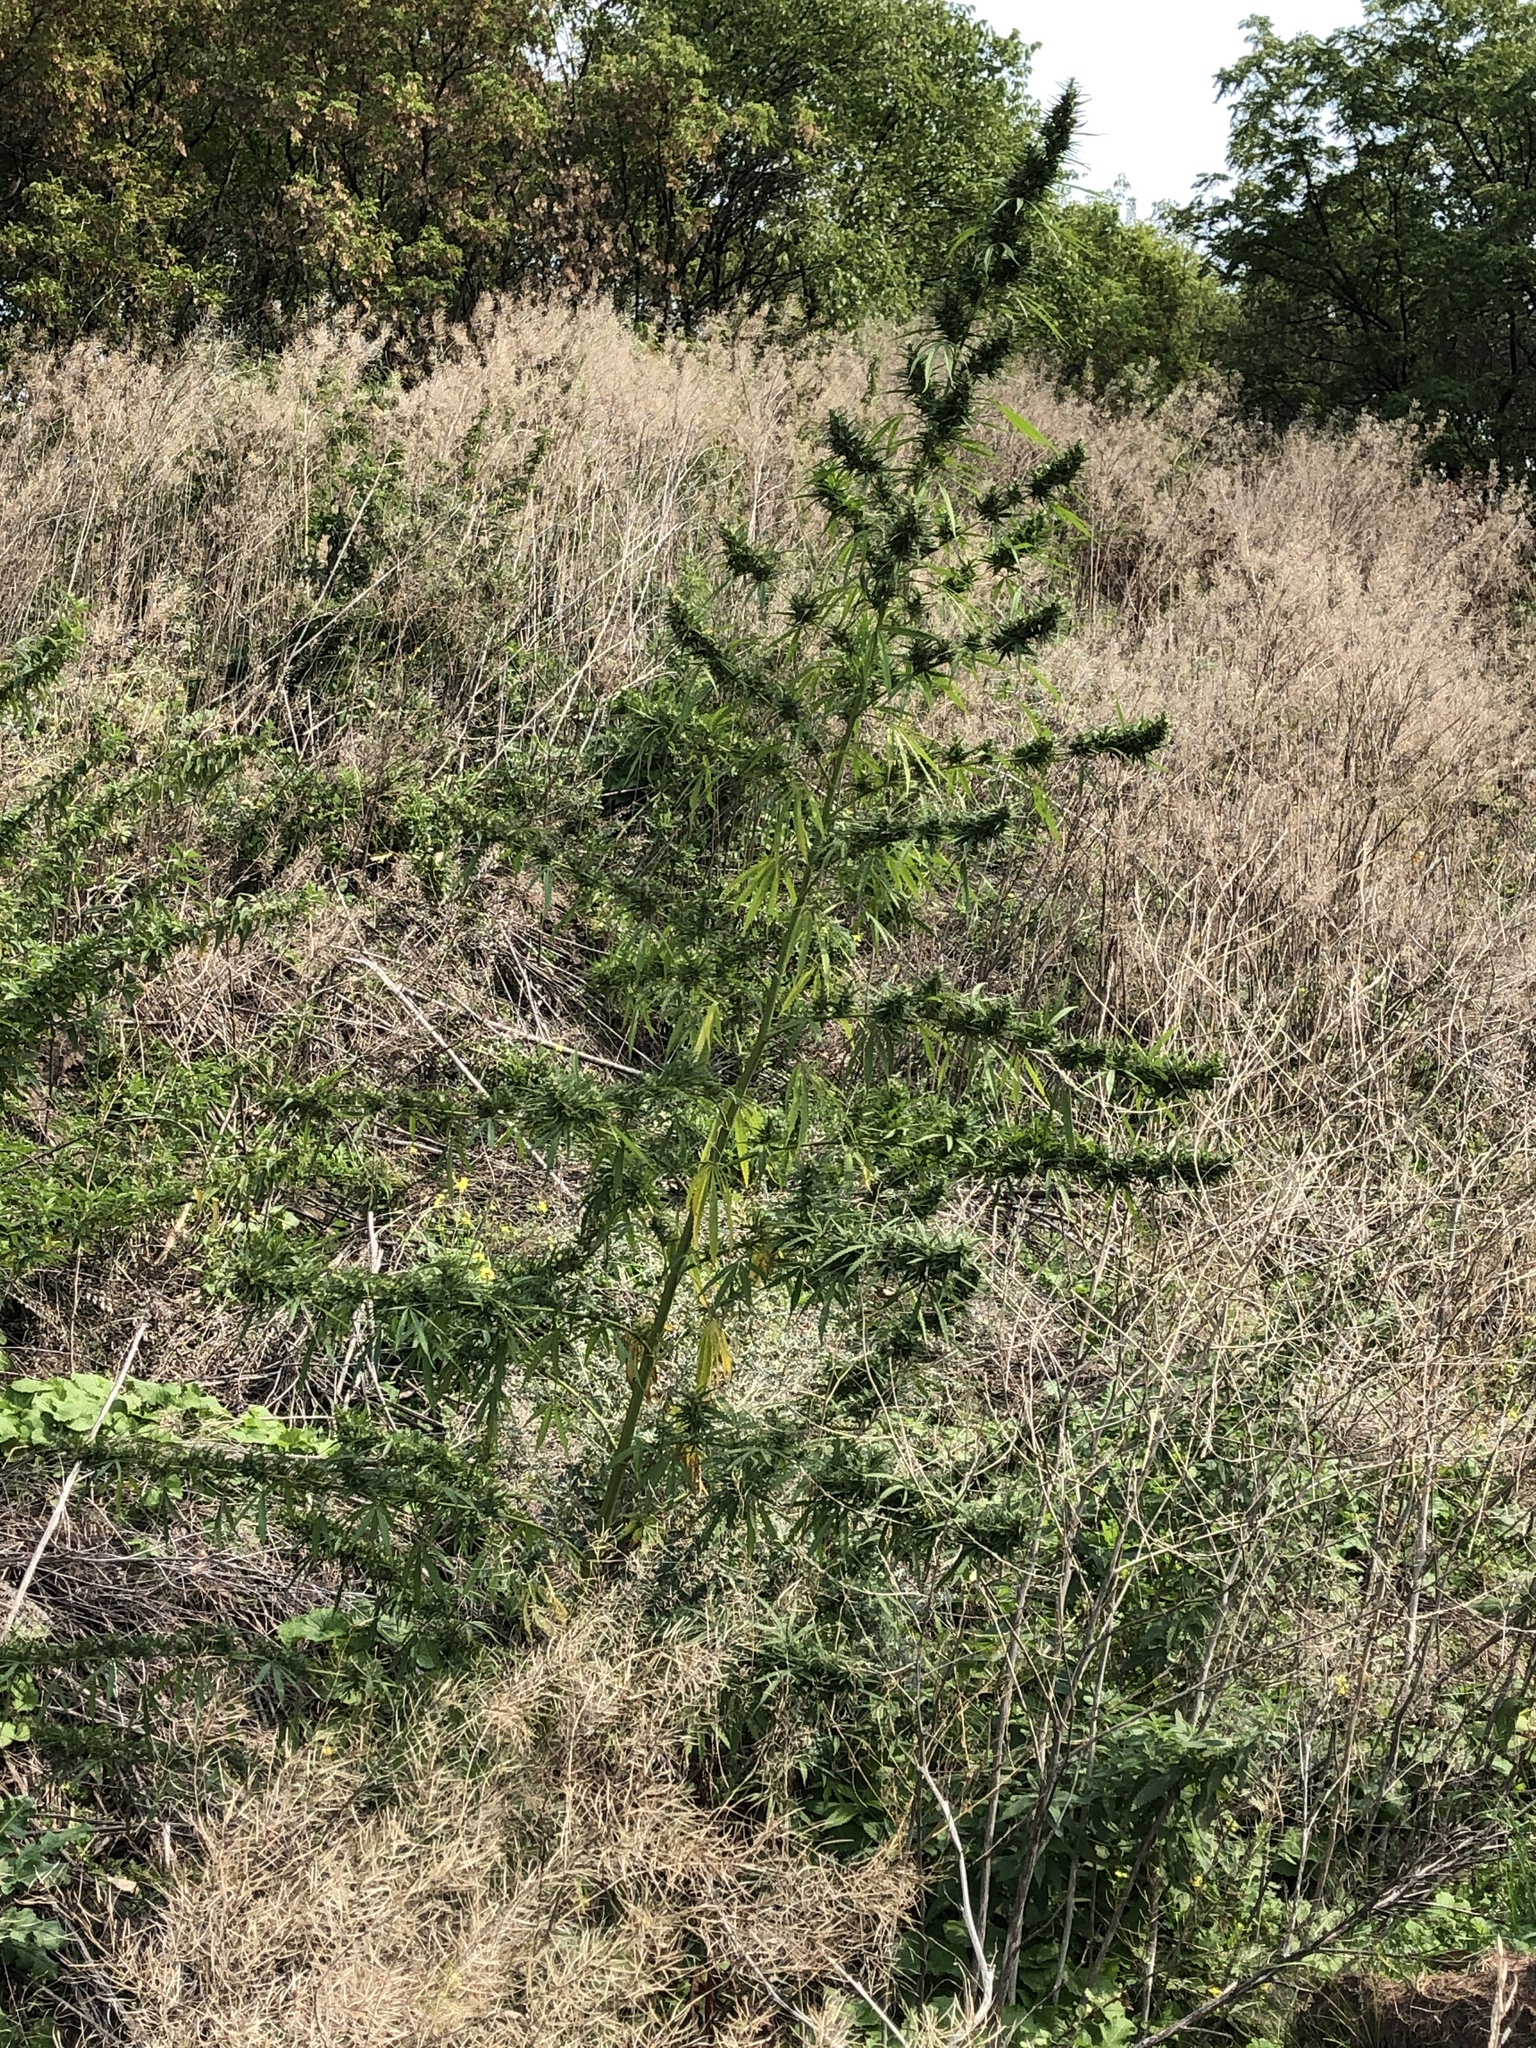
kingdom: Plantae
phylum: Tracheophyta
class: Magnoliopsida
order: Rosales
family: Cannabaceae
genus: Cannabis
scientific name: Cannabis sativa
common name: Hemp
